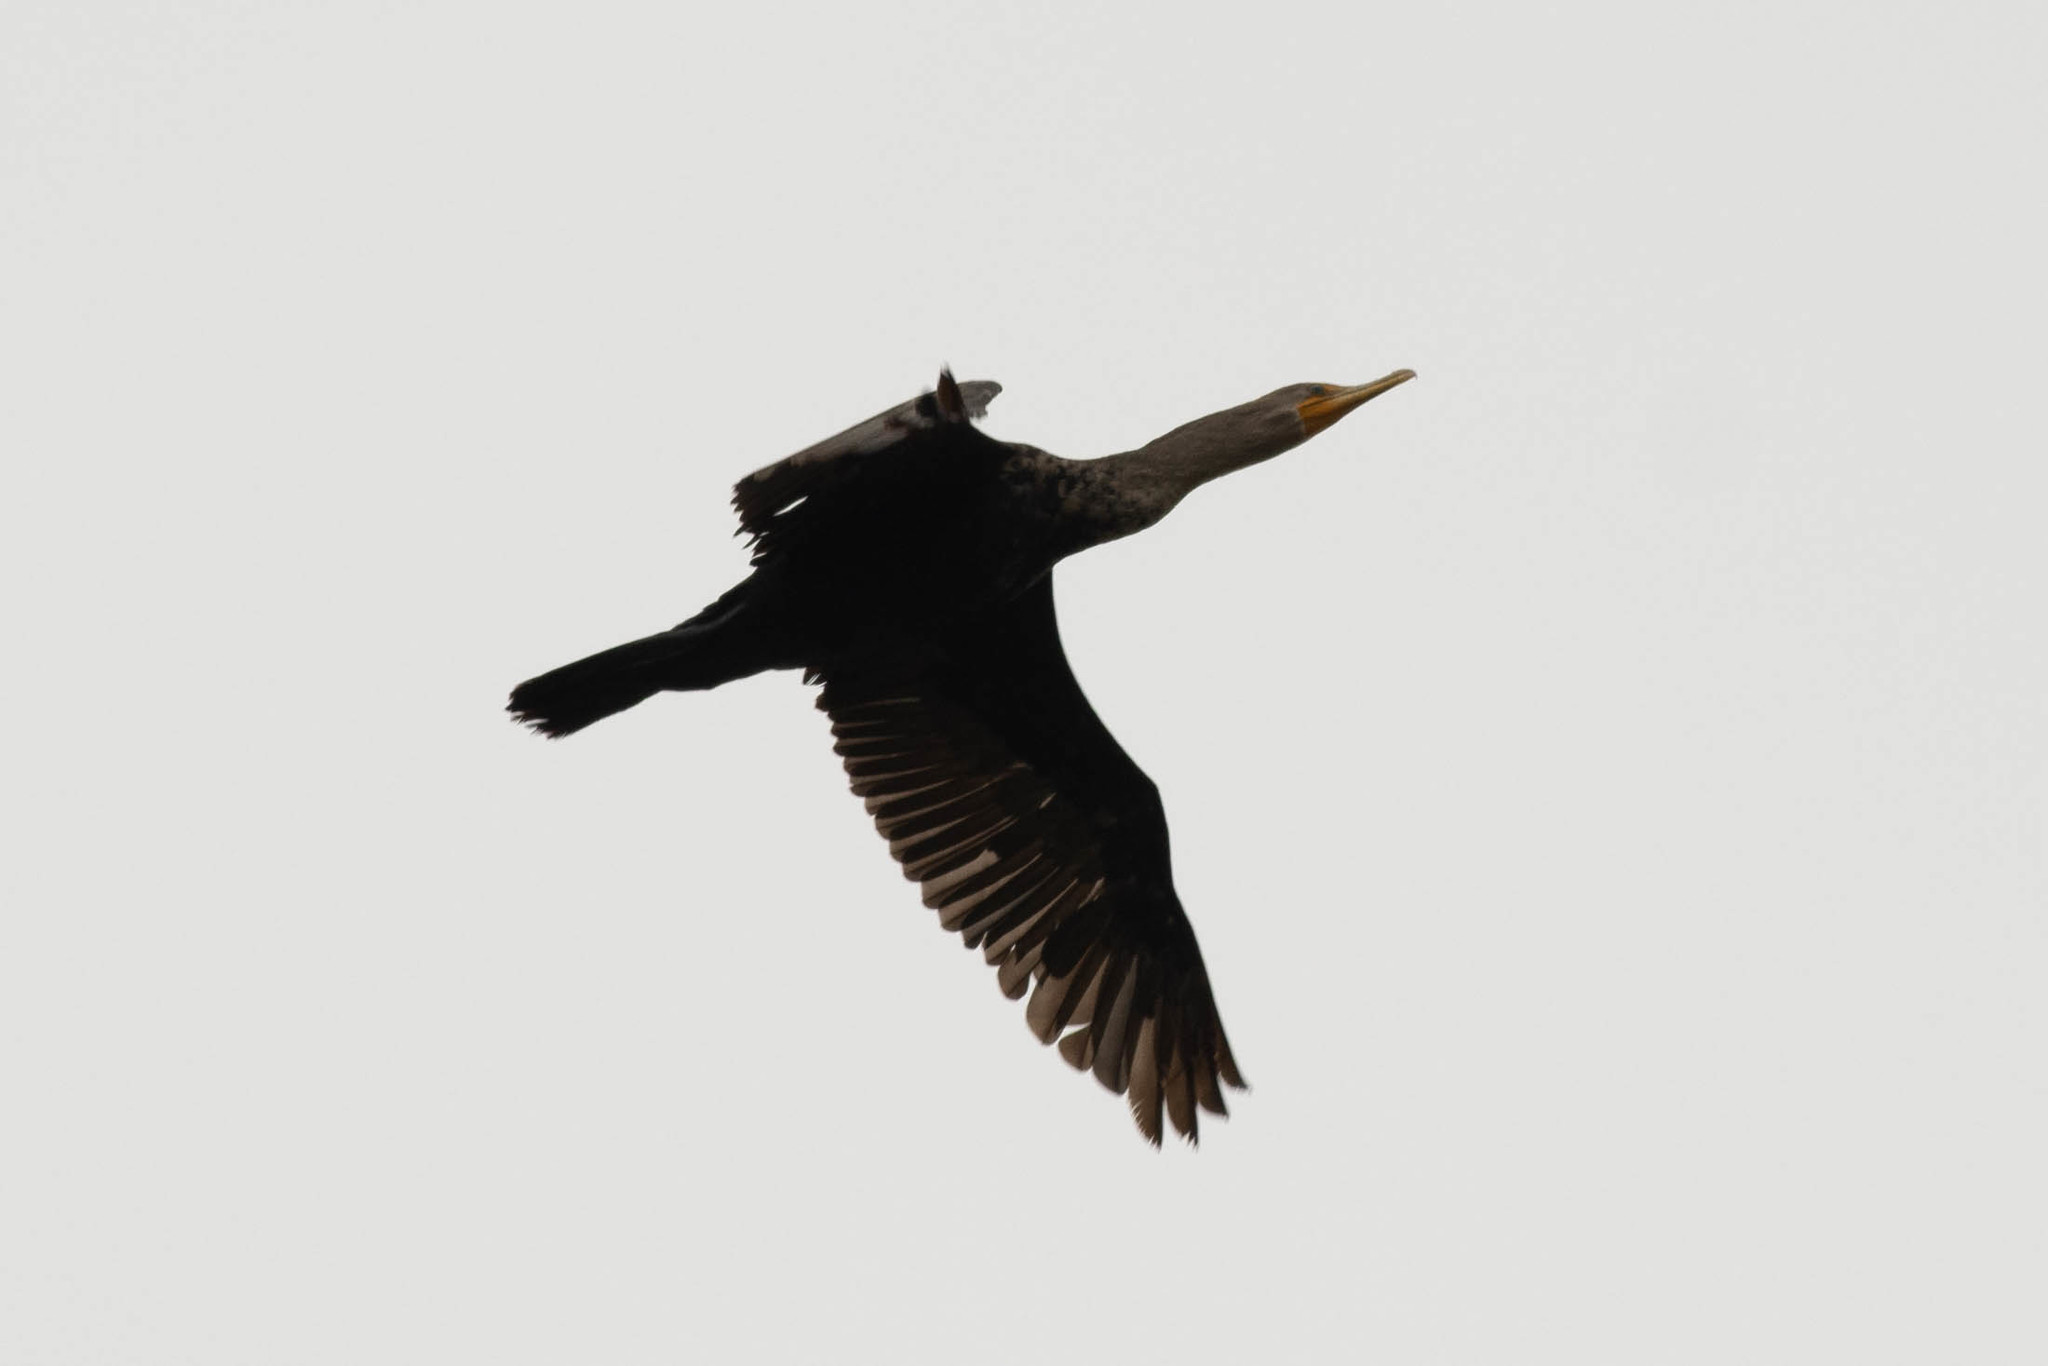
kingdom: Animalia
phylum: Chordata
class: Aves
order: Suliformes
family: Phalacrocoracidae
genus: Phalacrocorax
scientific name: Phalacrocorax auritus
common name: Double-crested cormorant
